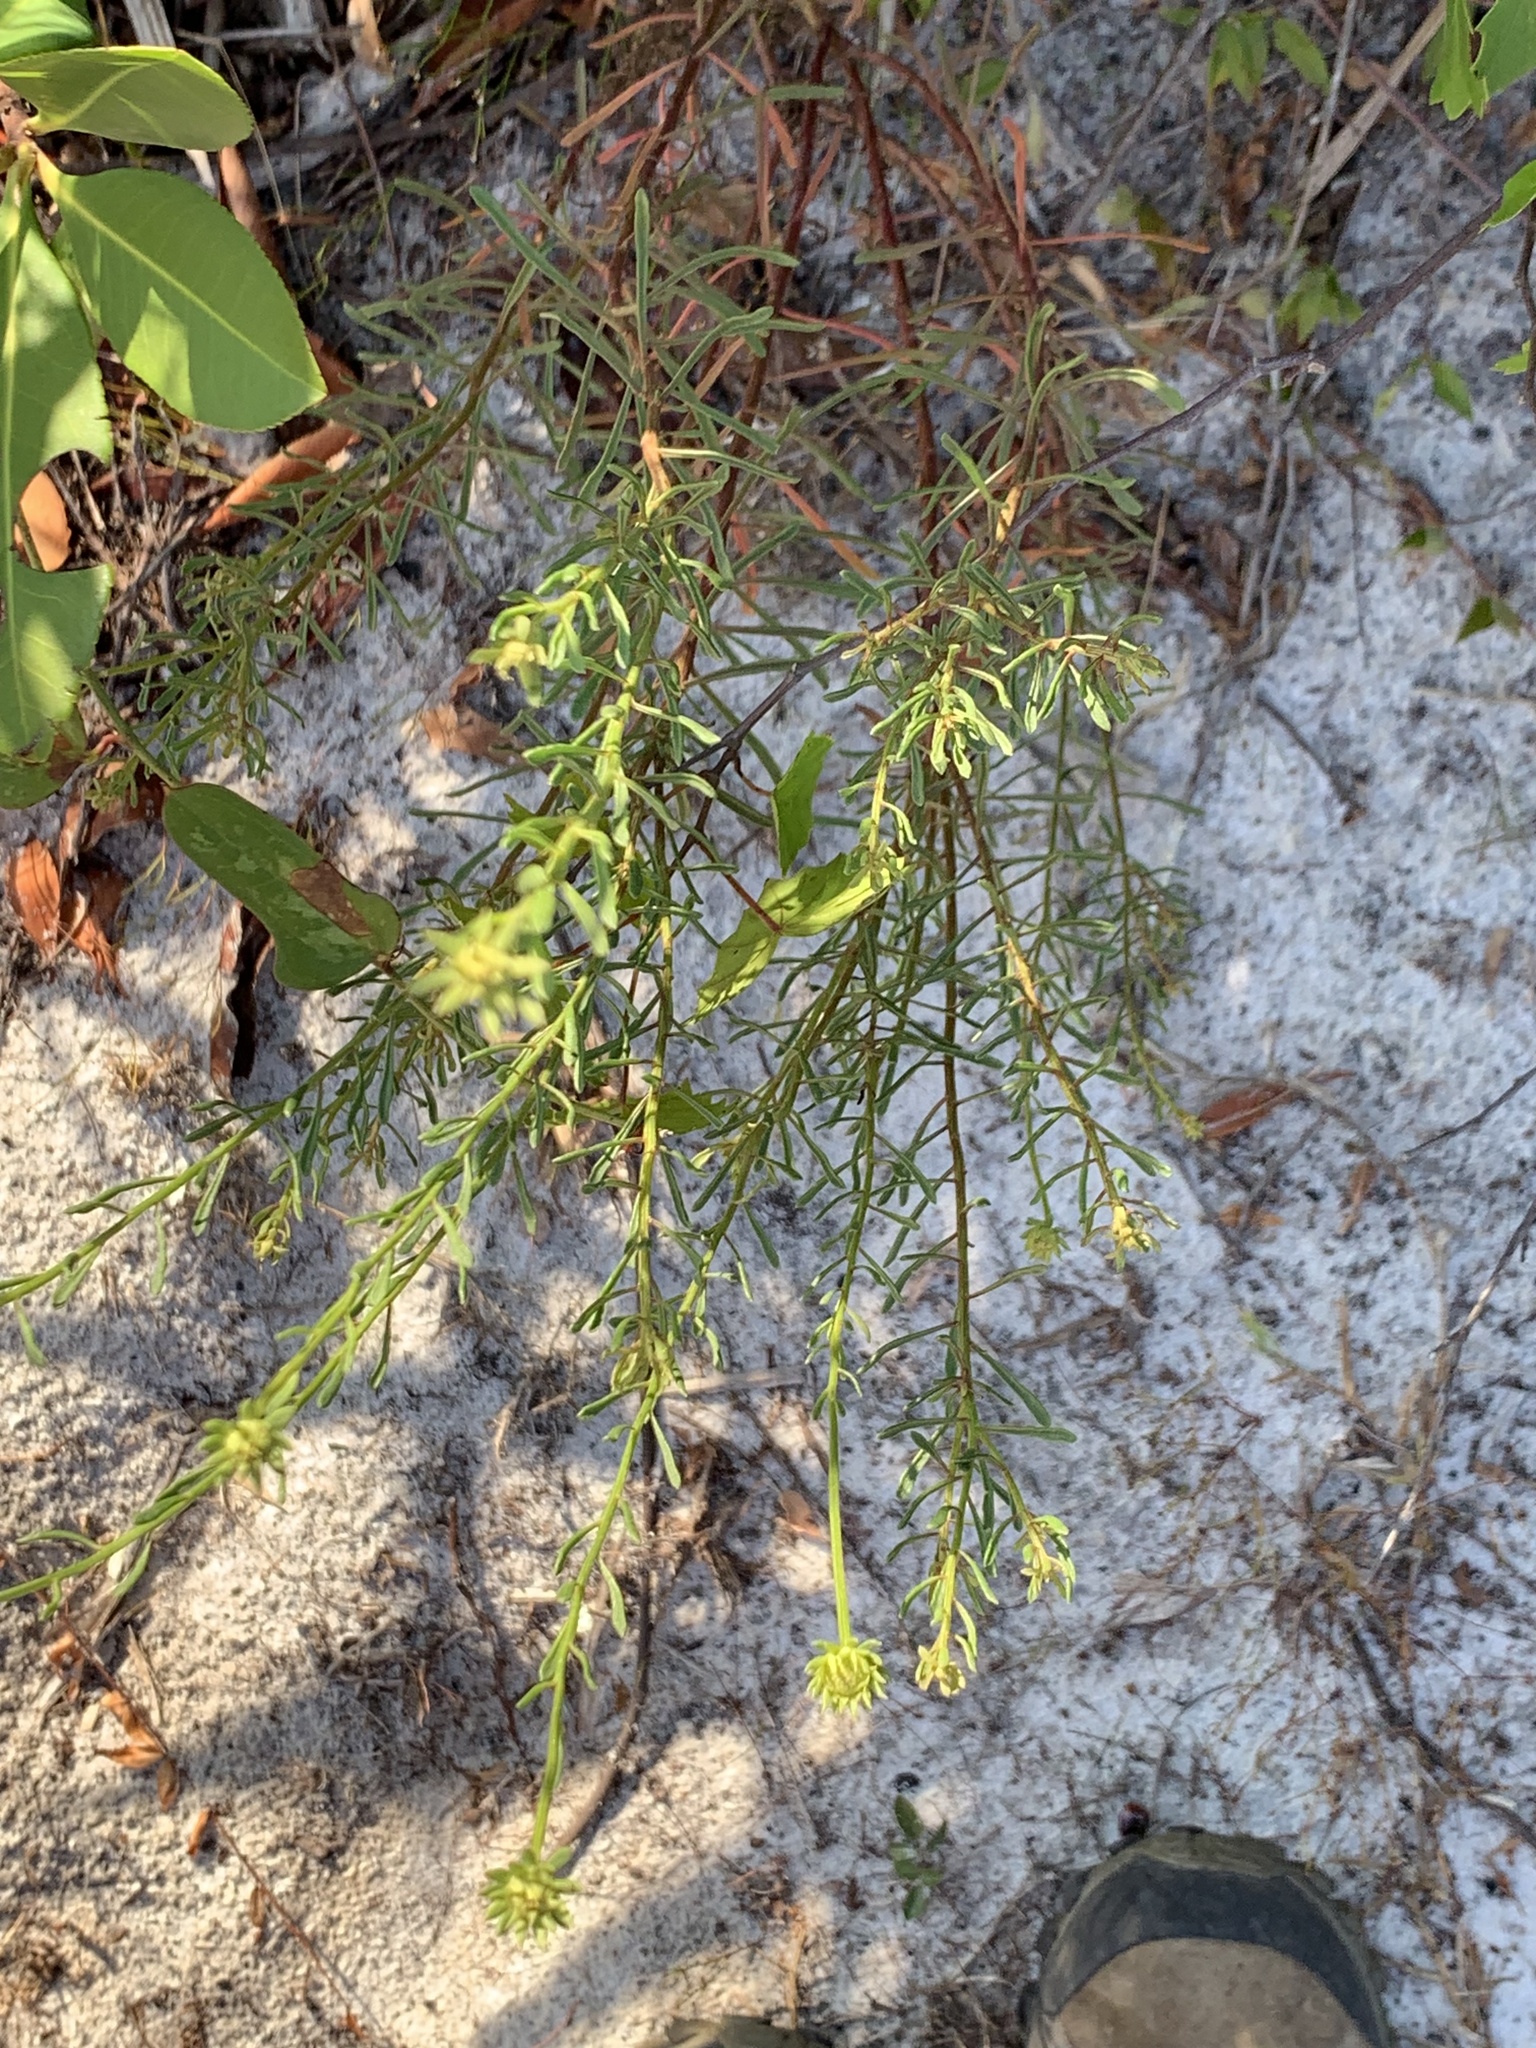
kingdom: Plantae
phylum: Tracheophyta
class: Magnoliopsida
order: Asterales
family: Asteraceae
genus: Balduina
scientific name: Balduina angustifolia
